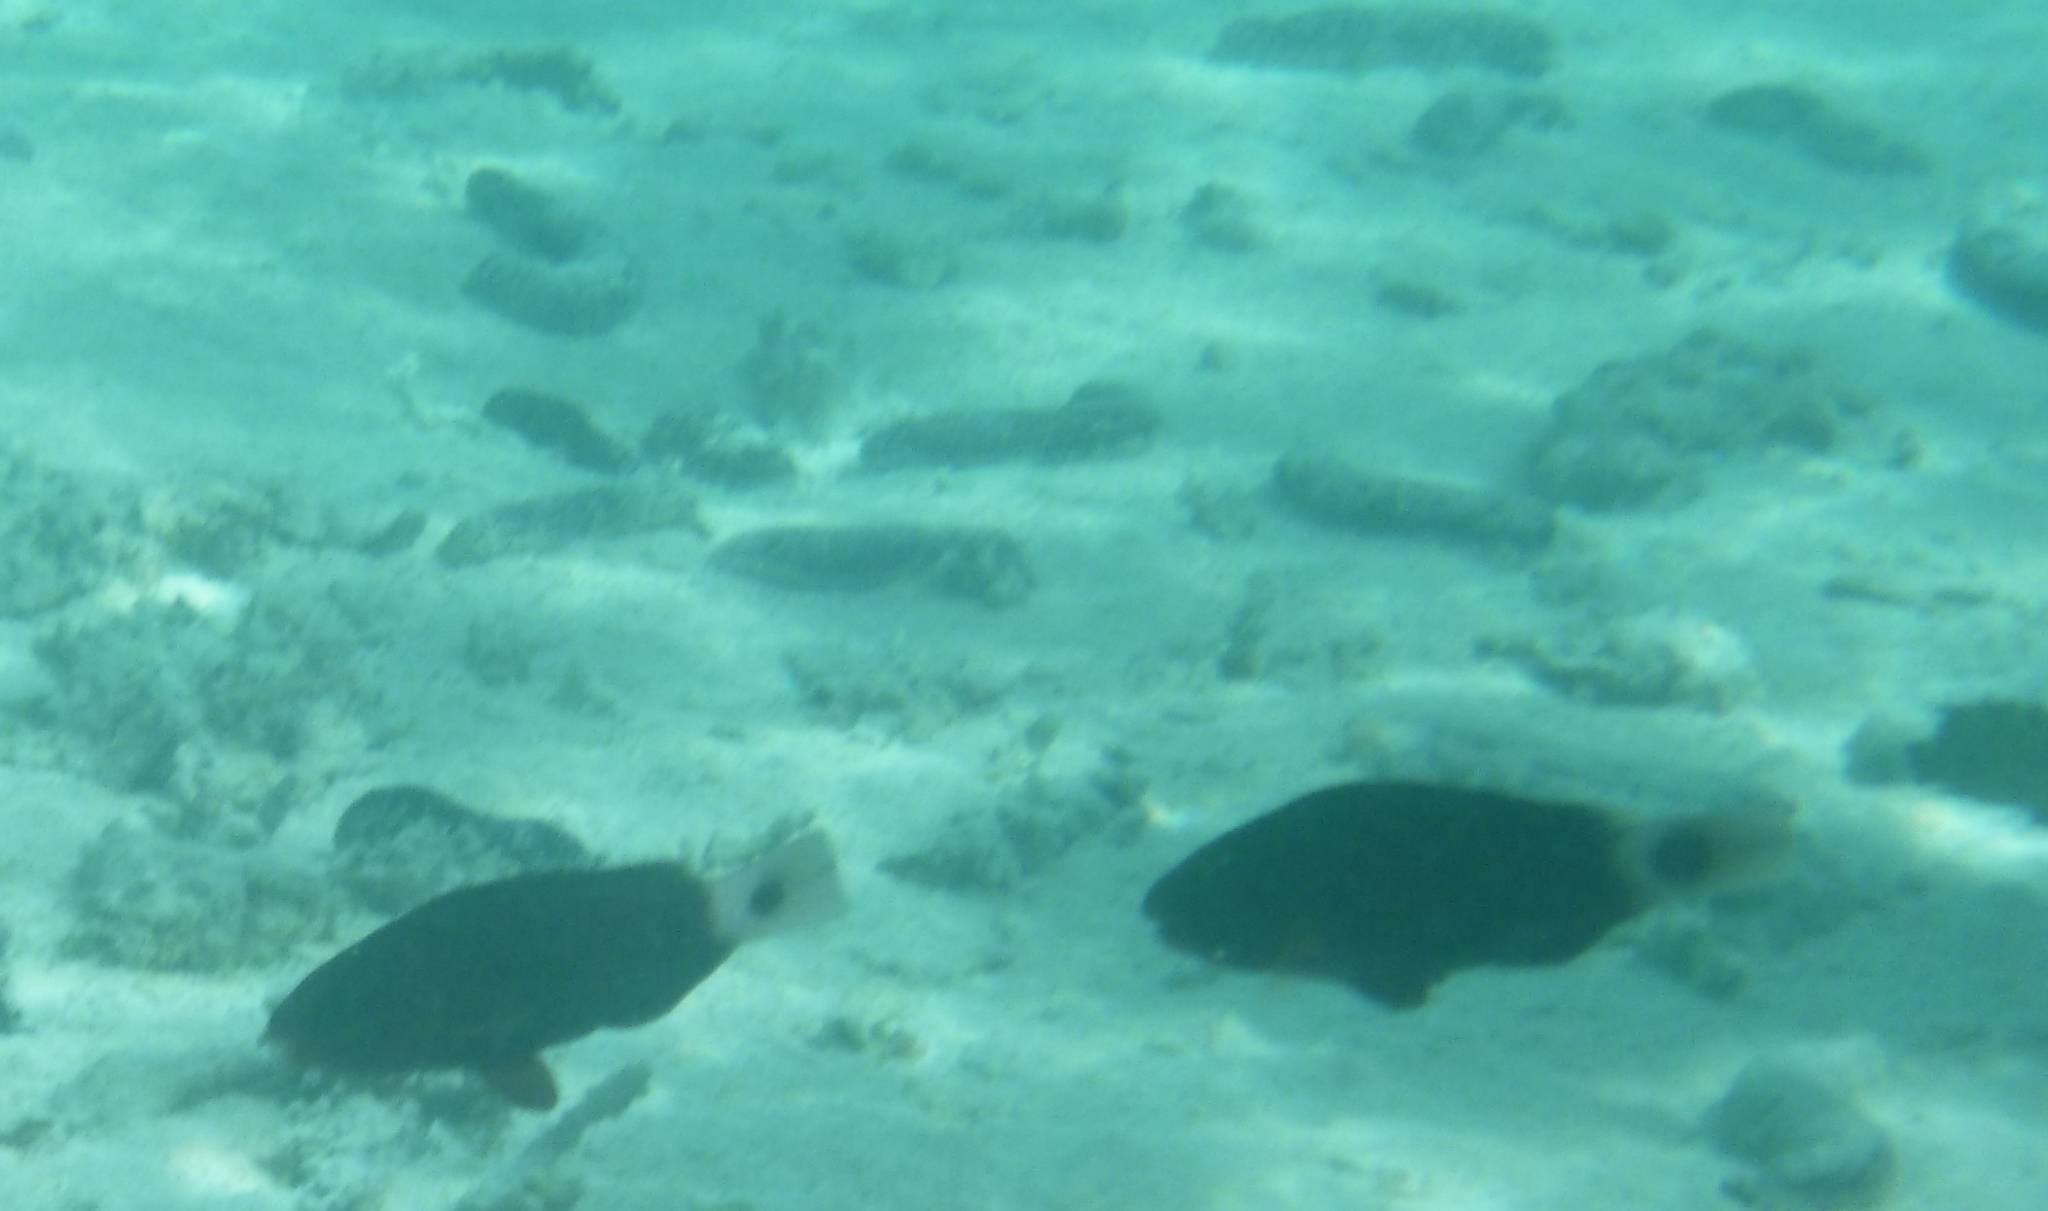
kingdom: Animalia
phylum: Chordata
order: Perciformes
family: Scaridae
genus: Chlorurus
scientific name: Chlorurus spilurus
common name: Bullethead parrotfish
